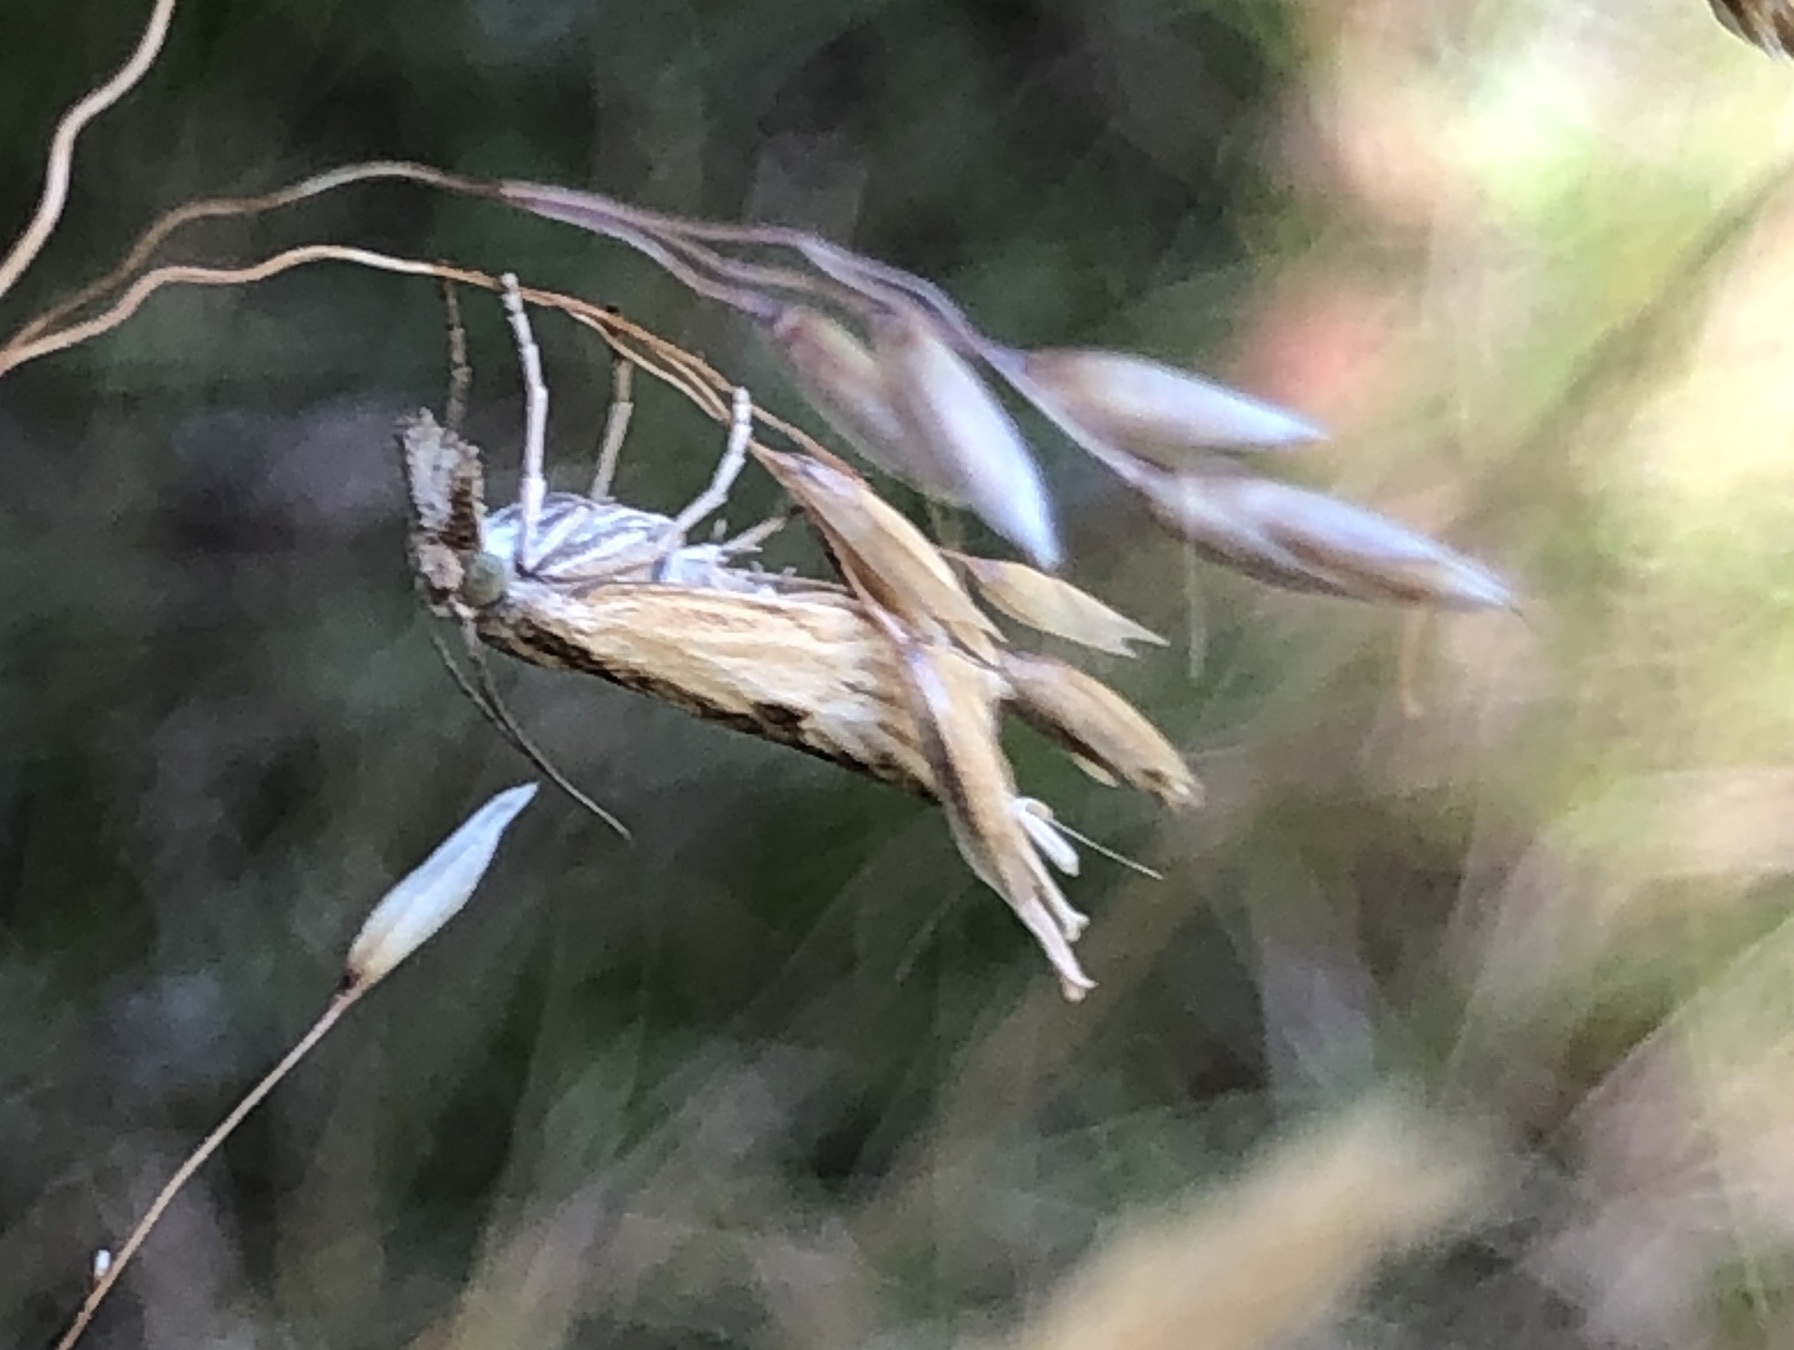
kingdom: Animalia
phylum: Arthropoda
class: Insecta
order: Lepidoptera
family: Crambidae
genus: Agriphila
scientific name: Agriphila inquinatella
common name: Barred grass-veneer
